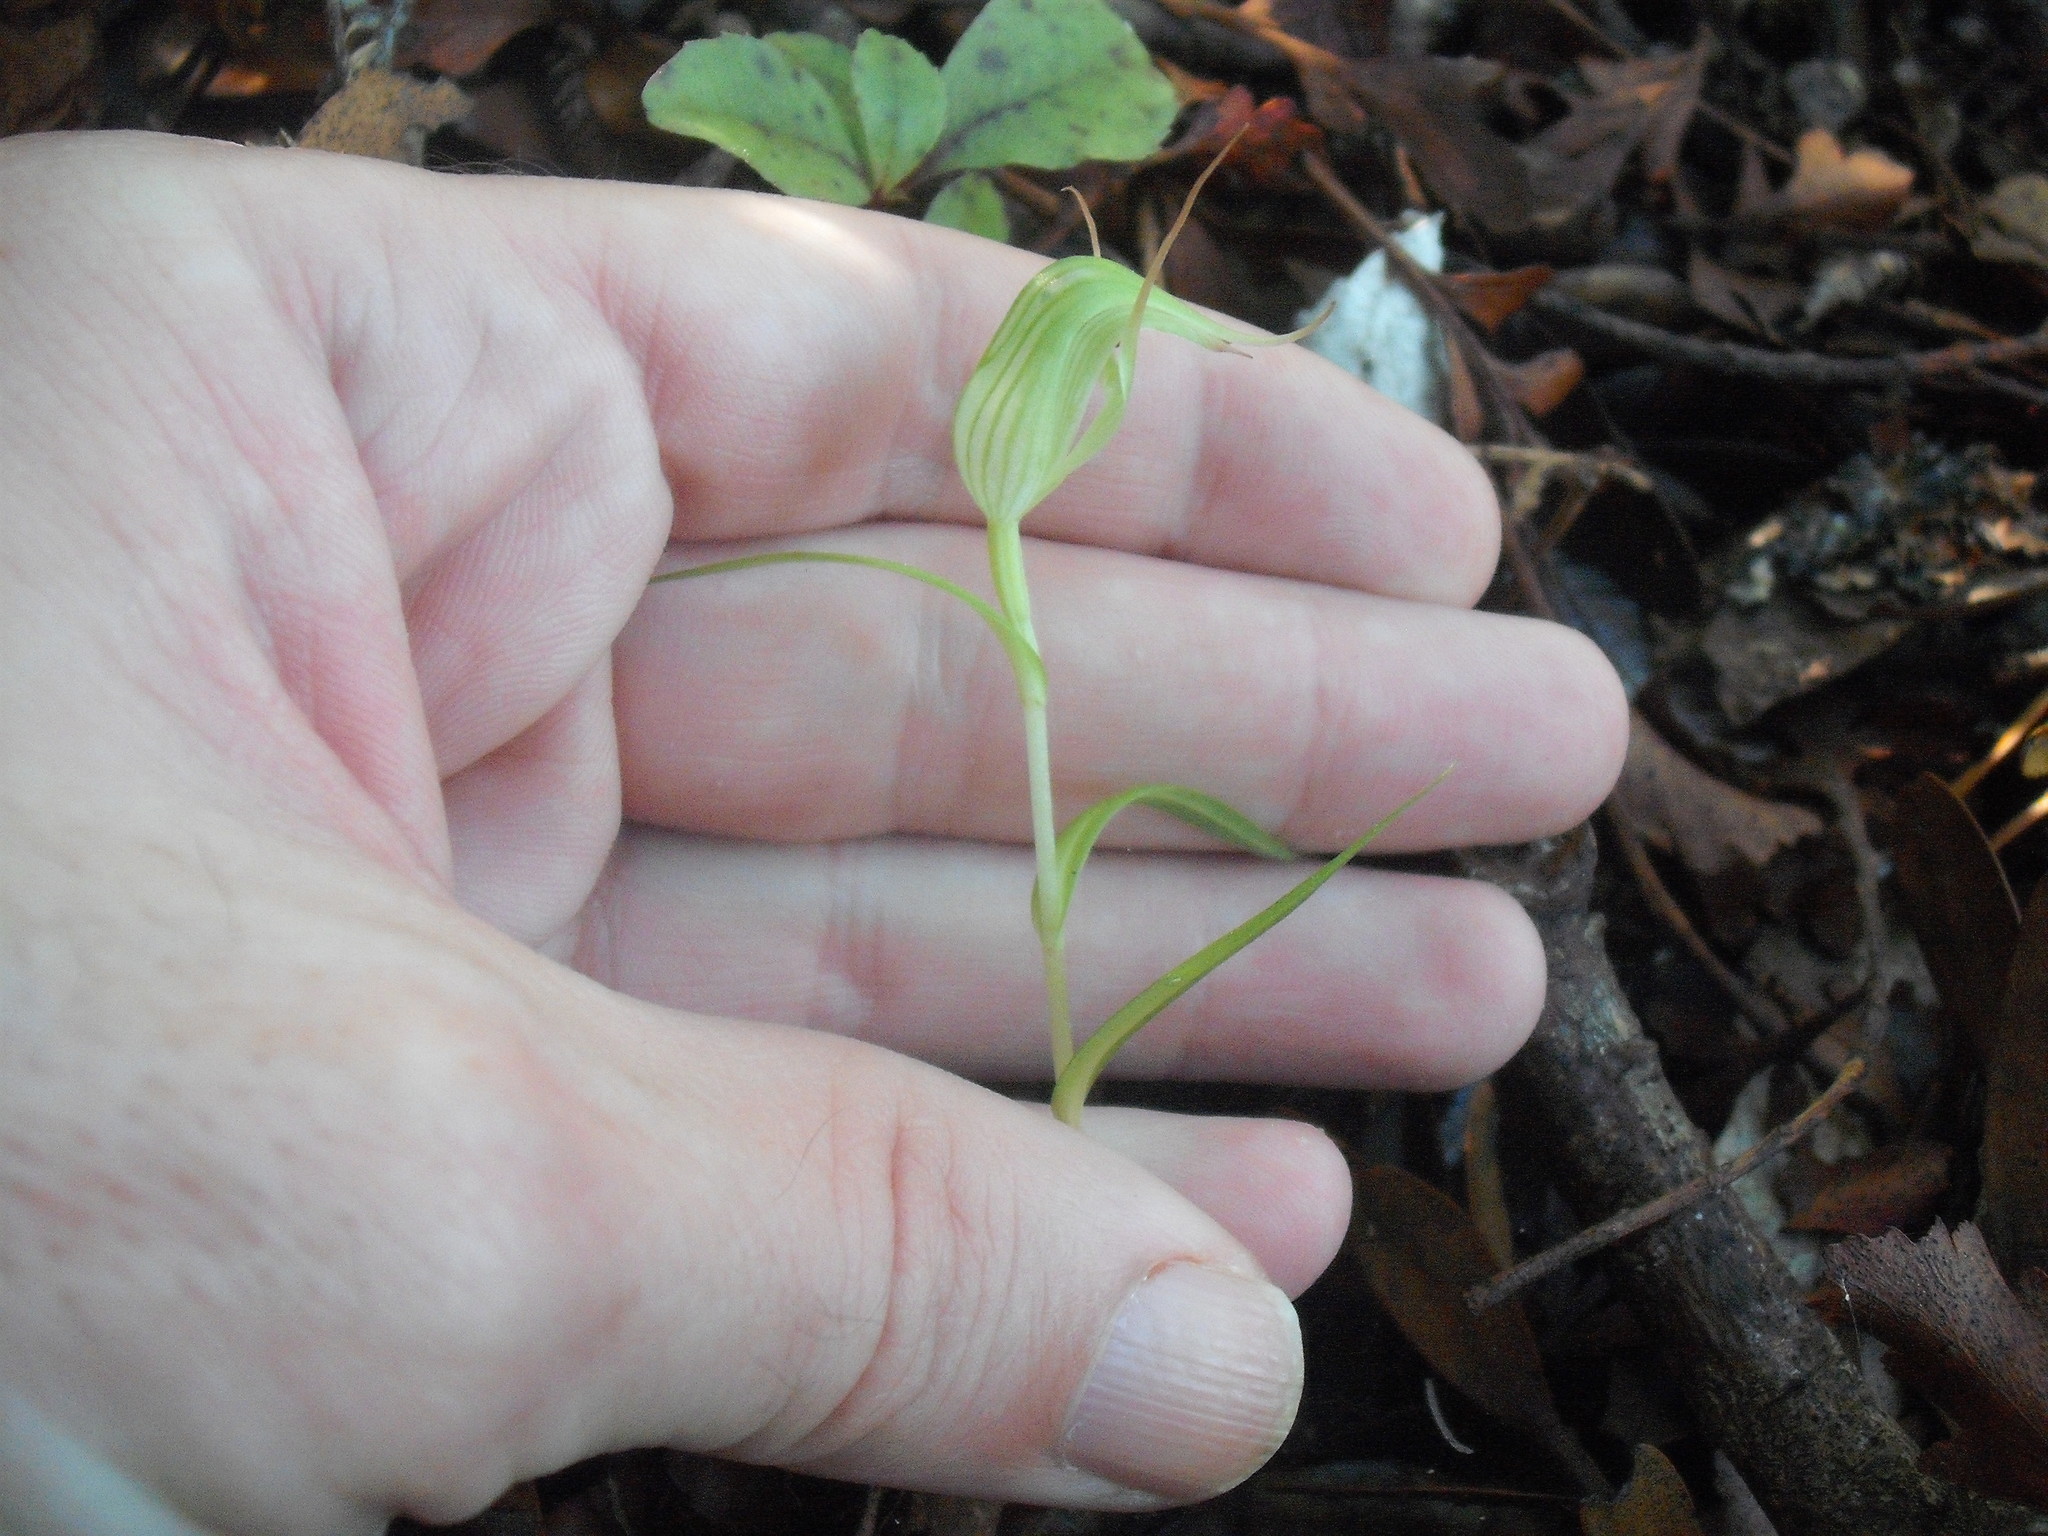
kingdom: Plantae
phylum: Tracheophyta
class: Liliopsida
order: Asparagales
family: Orchidaceae
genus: Pterostylis
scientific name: Pterostylis agathicola
